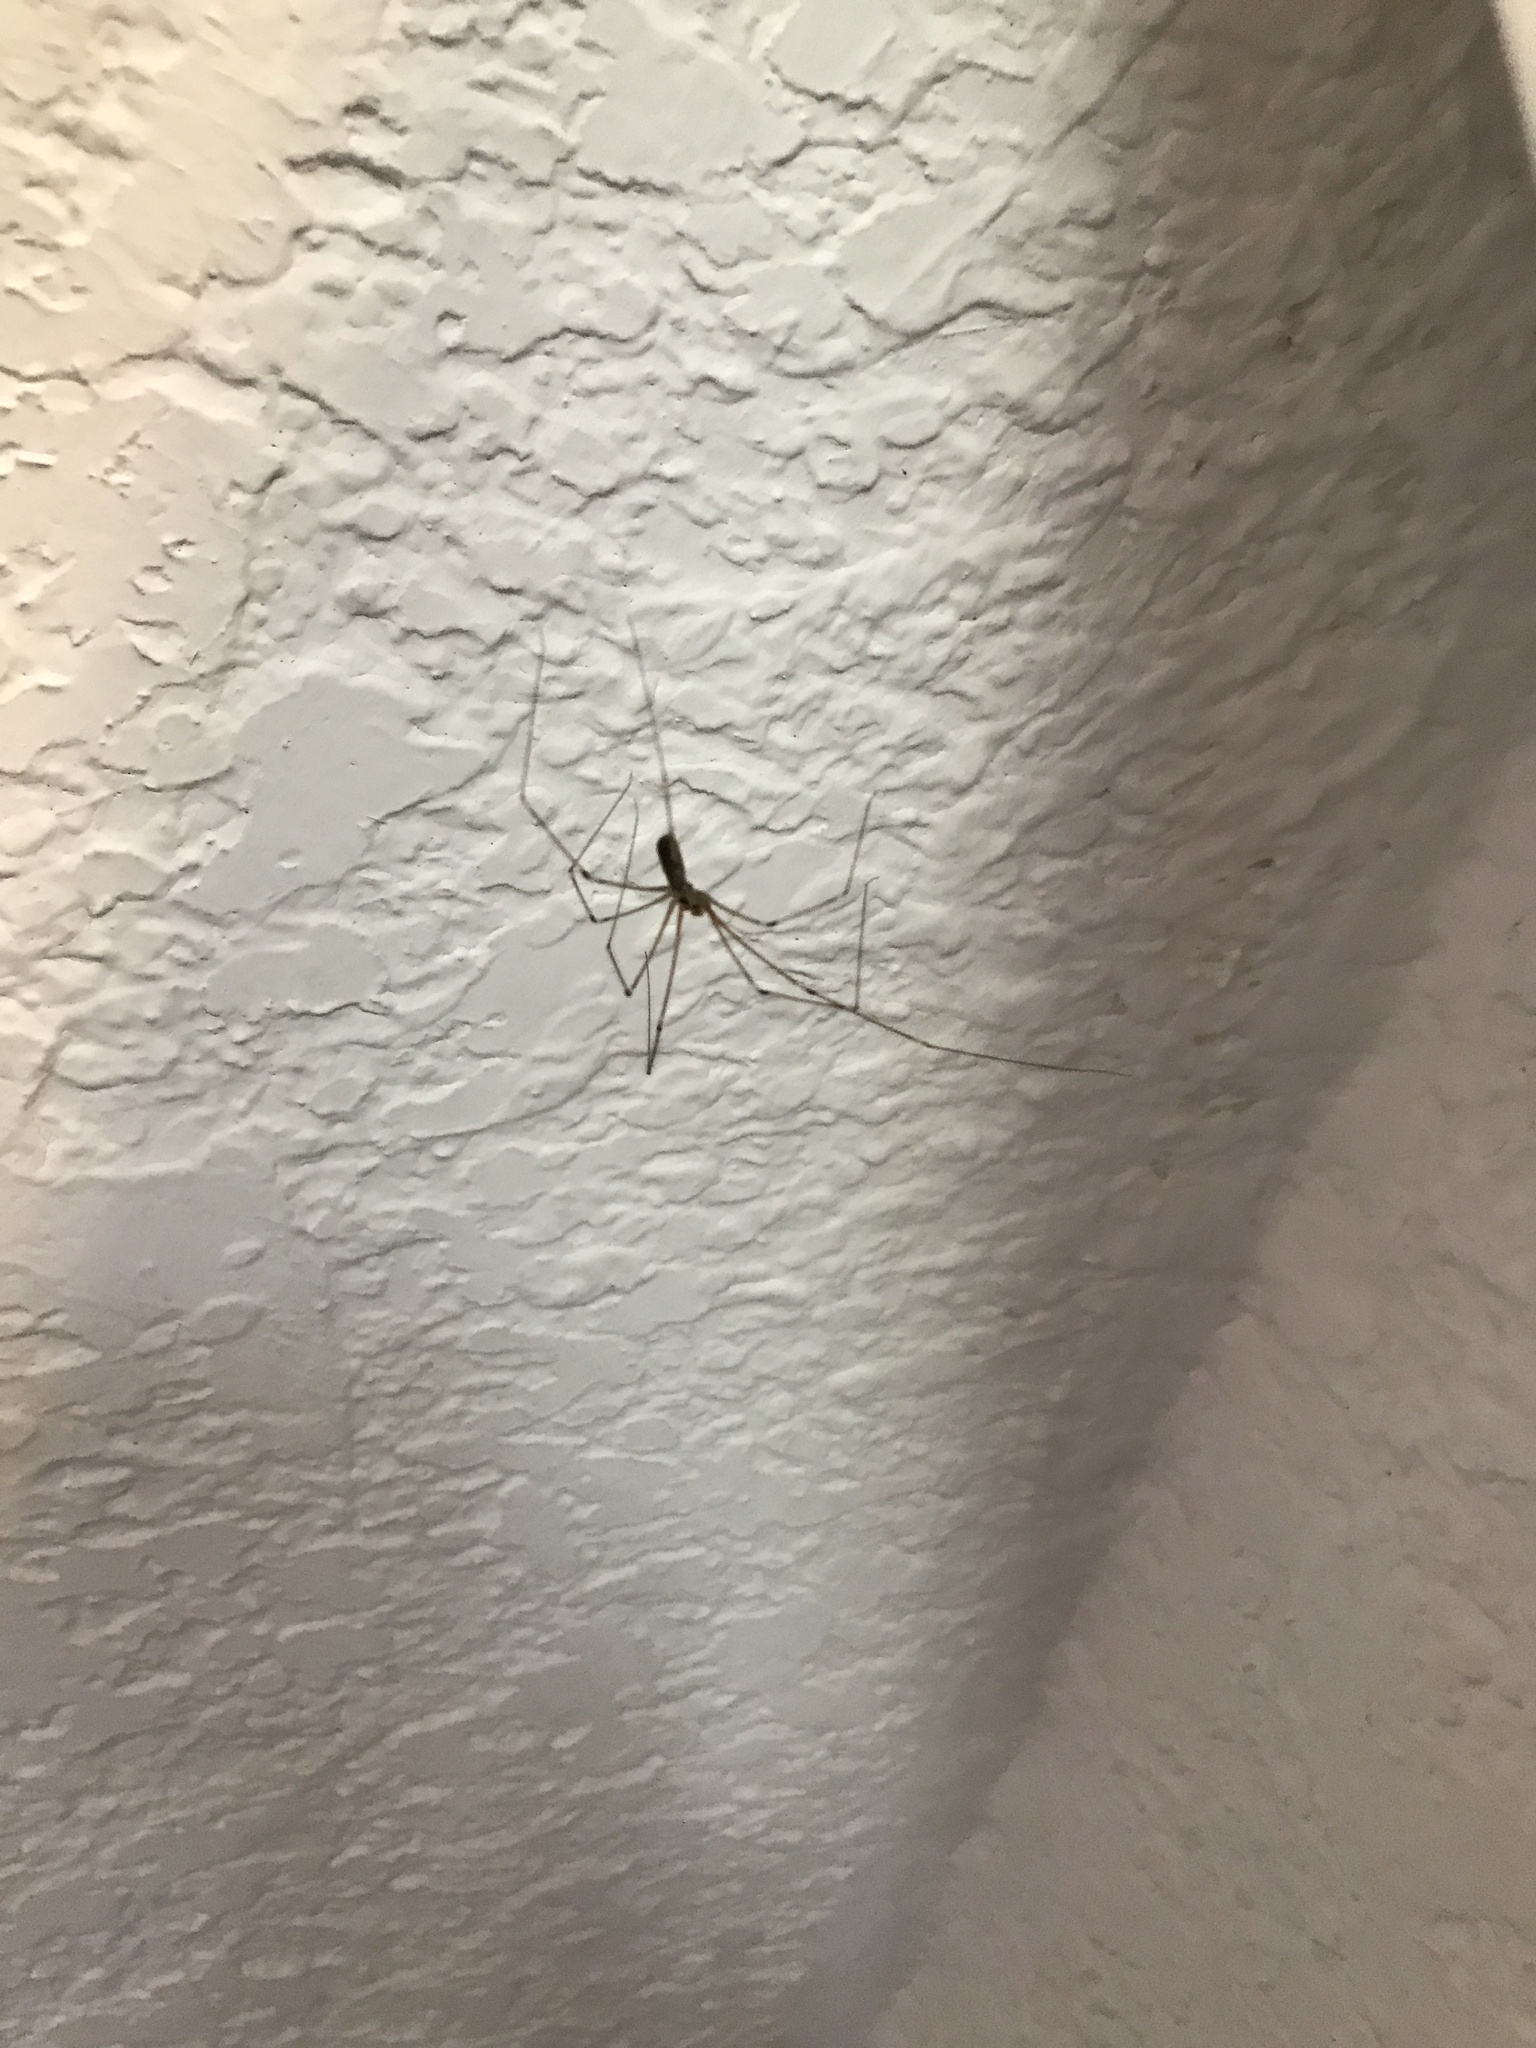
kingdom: Animalia
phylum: Arthropoda
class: Arachnida
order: Araneae
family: Pholcidae
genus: Pholcus
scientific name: Pholcus phalangioides
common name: Longbodied cellar spider
